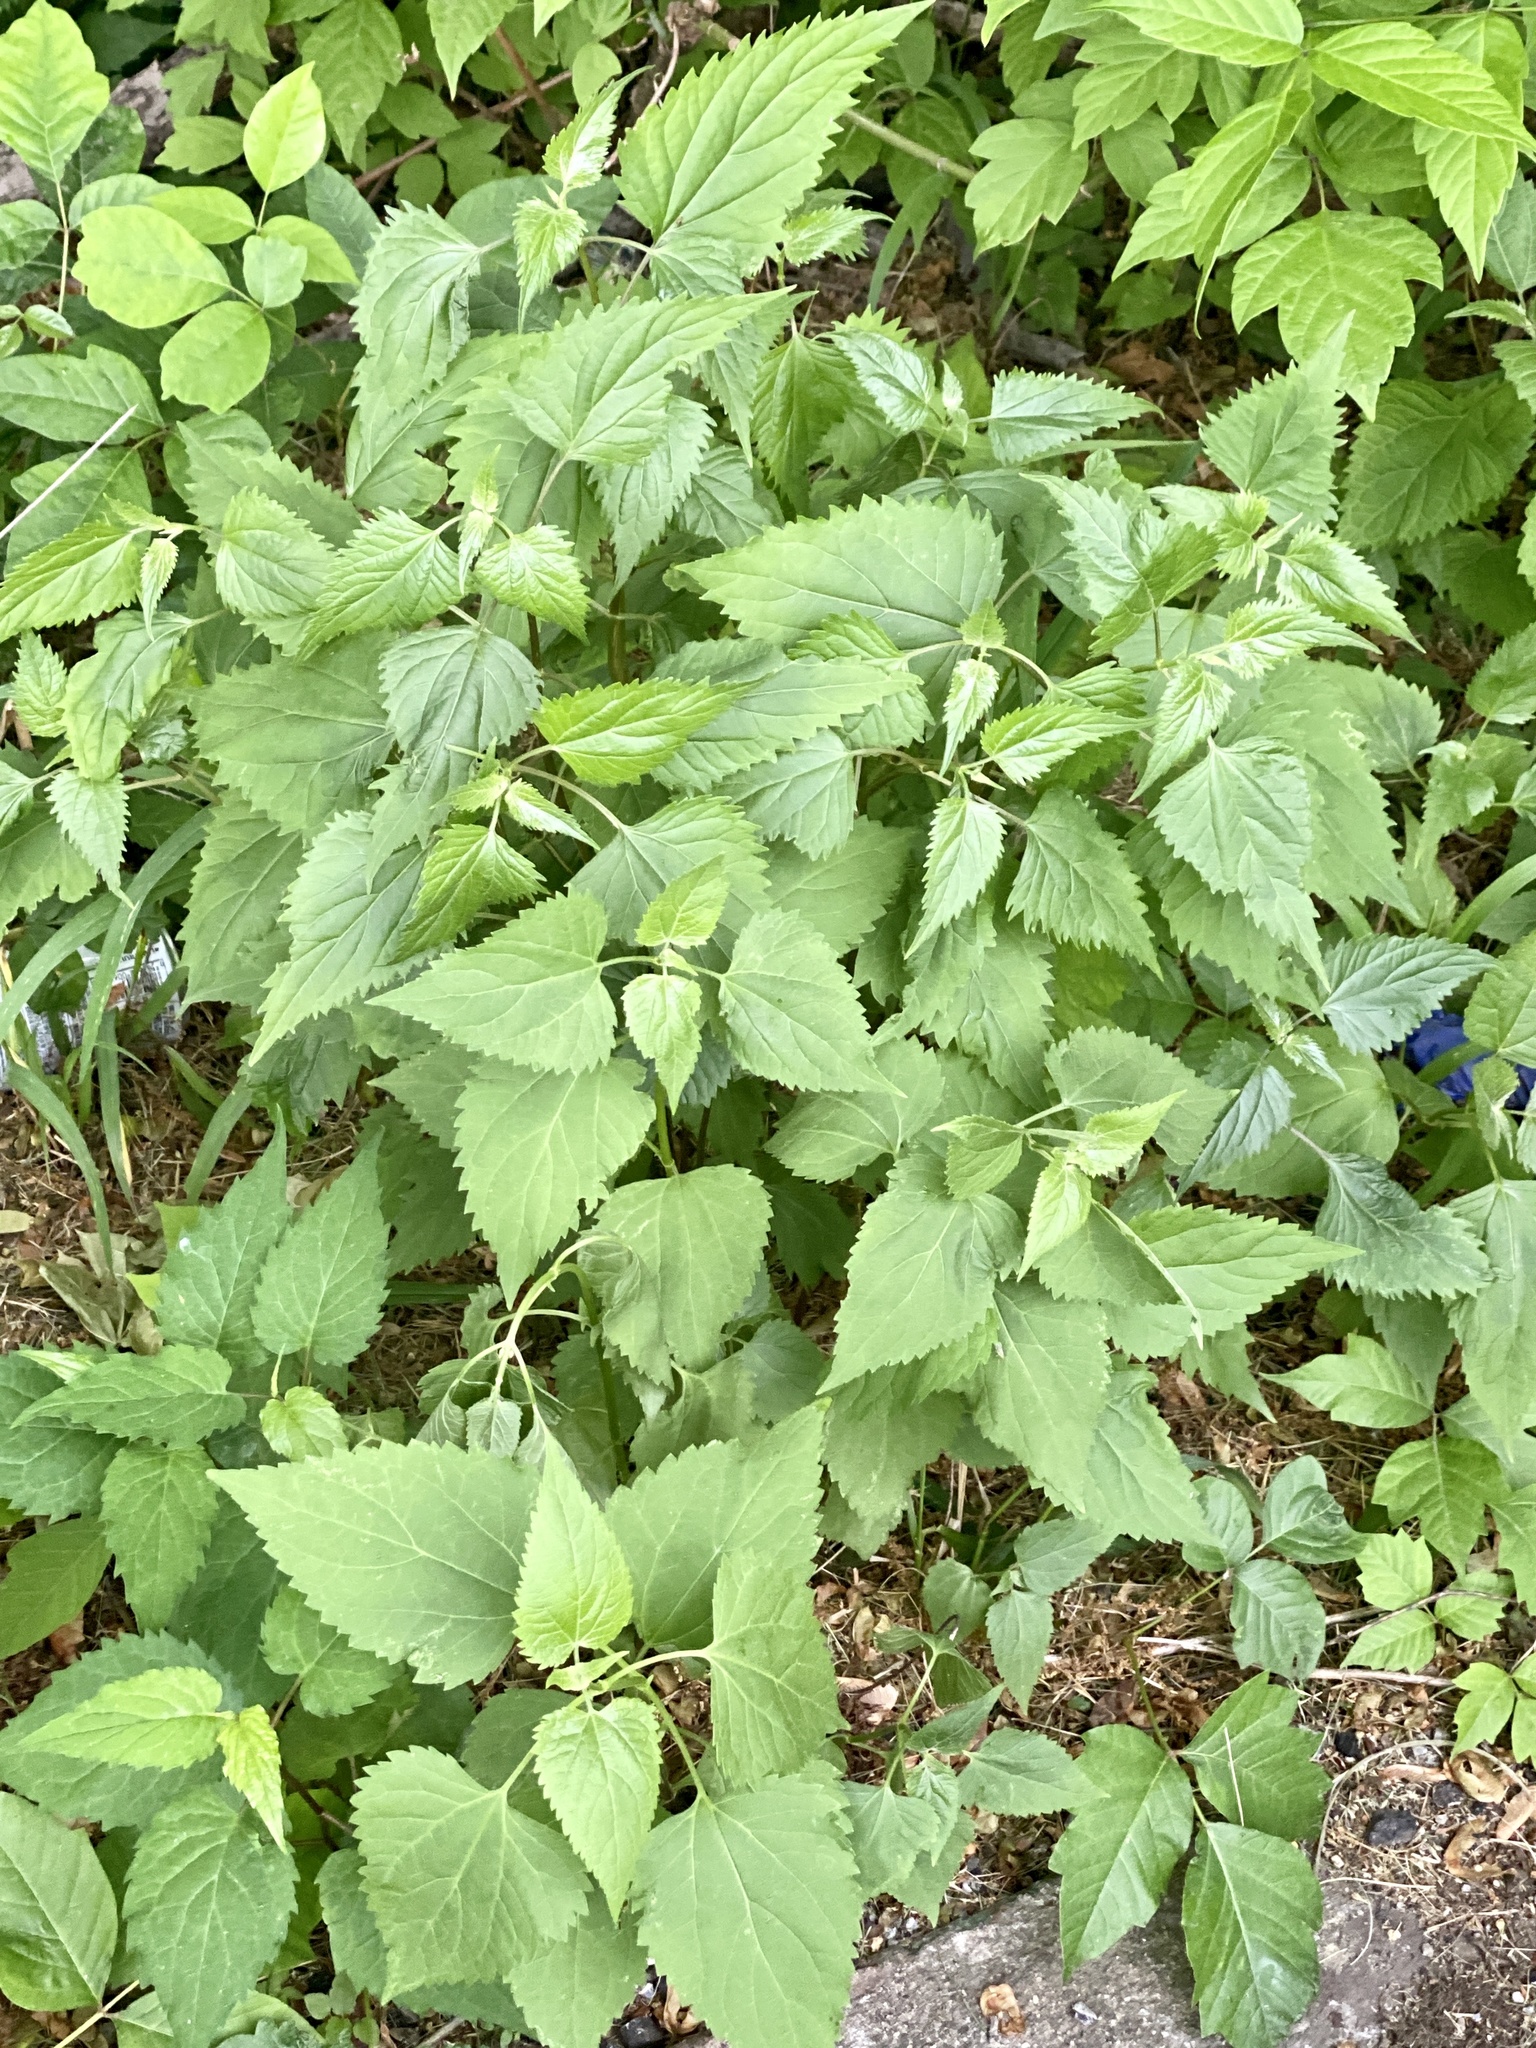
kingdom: Plantae
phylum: Tracheophyta
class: Magnoliopsida
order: Asterales
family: Asteraceae
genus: Ageratina
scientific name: Ageratina altissima
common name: White snakeroot
